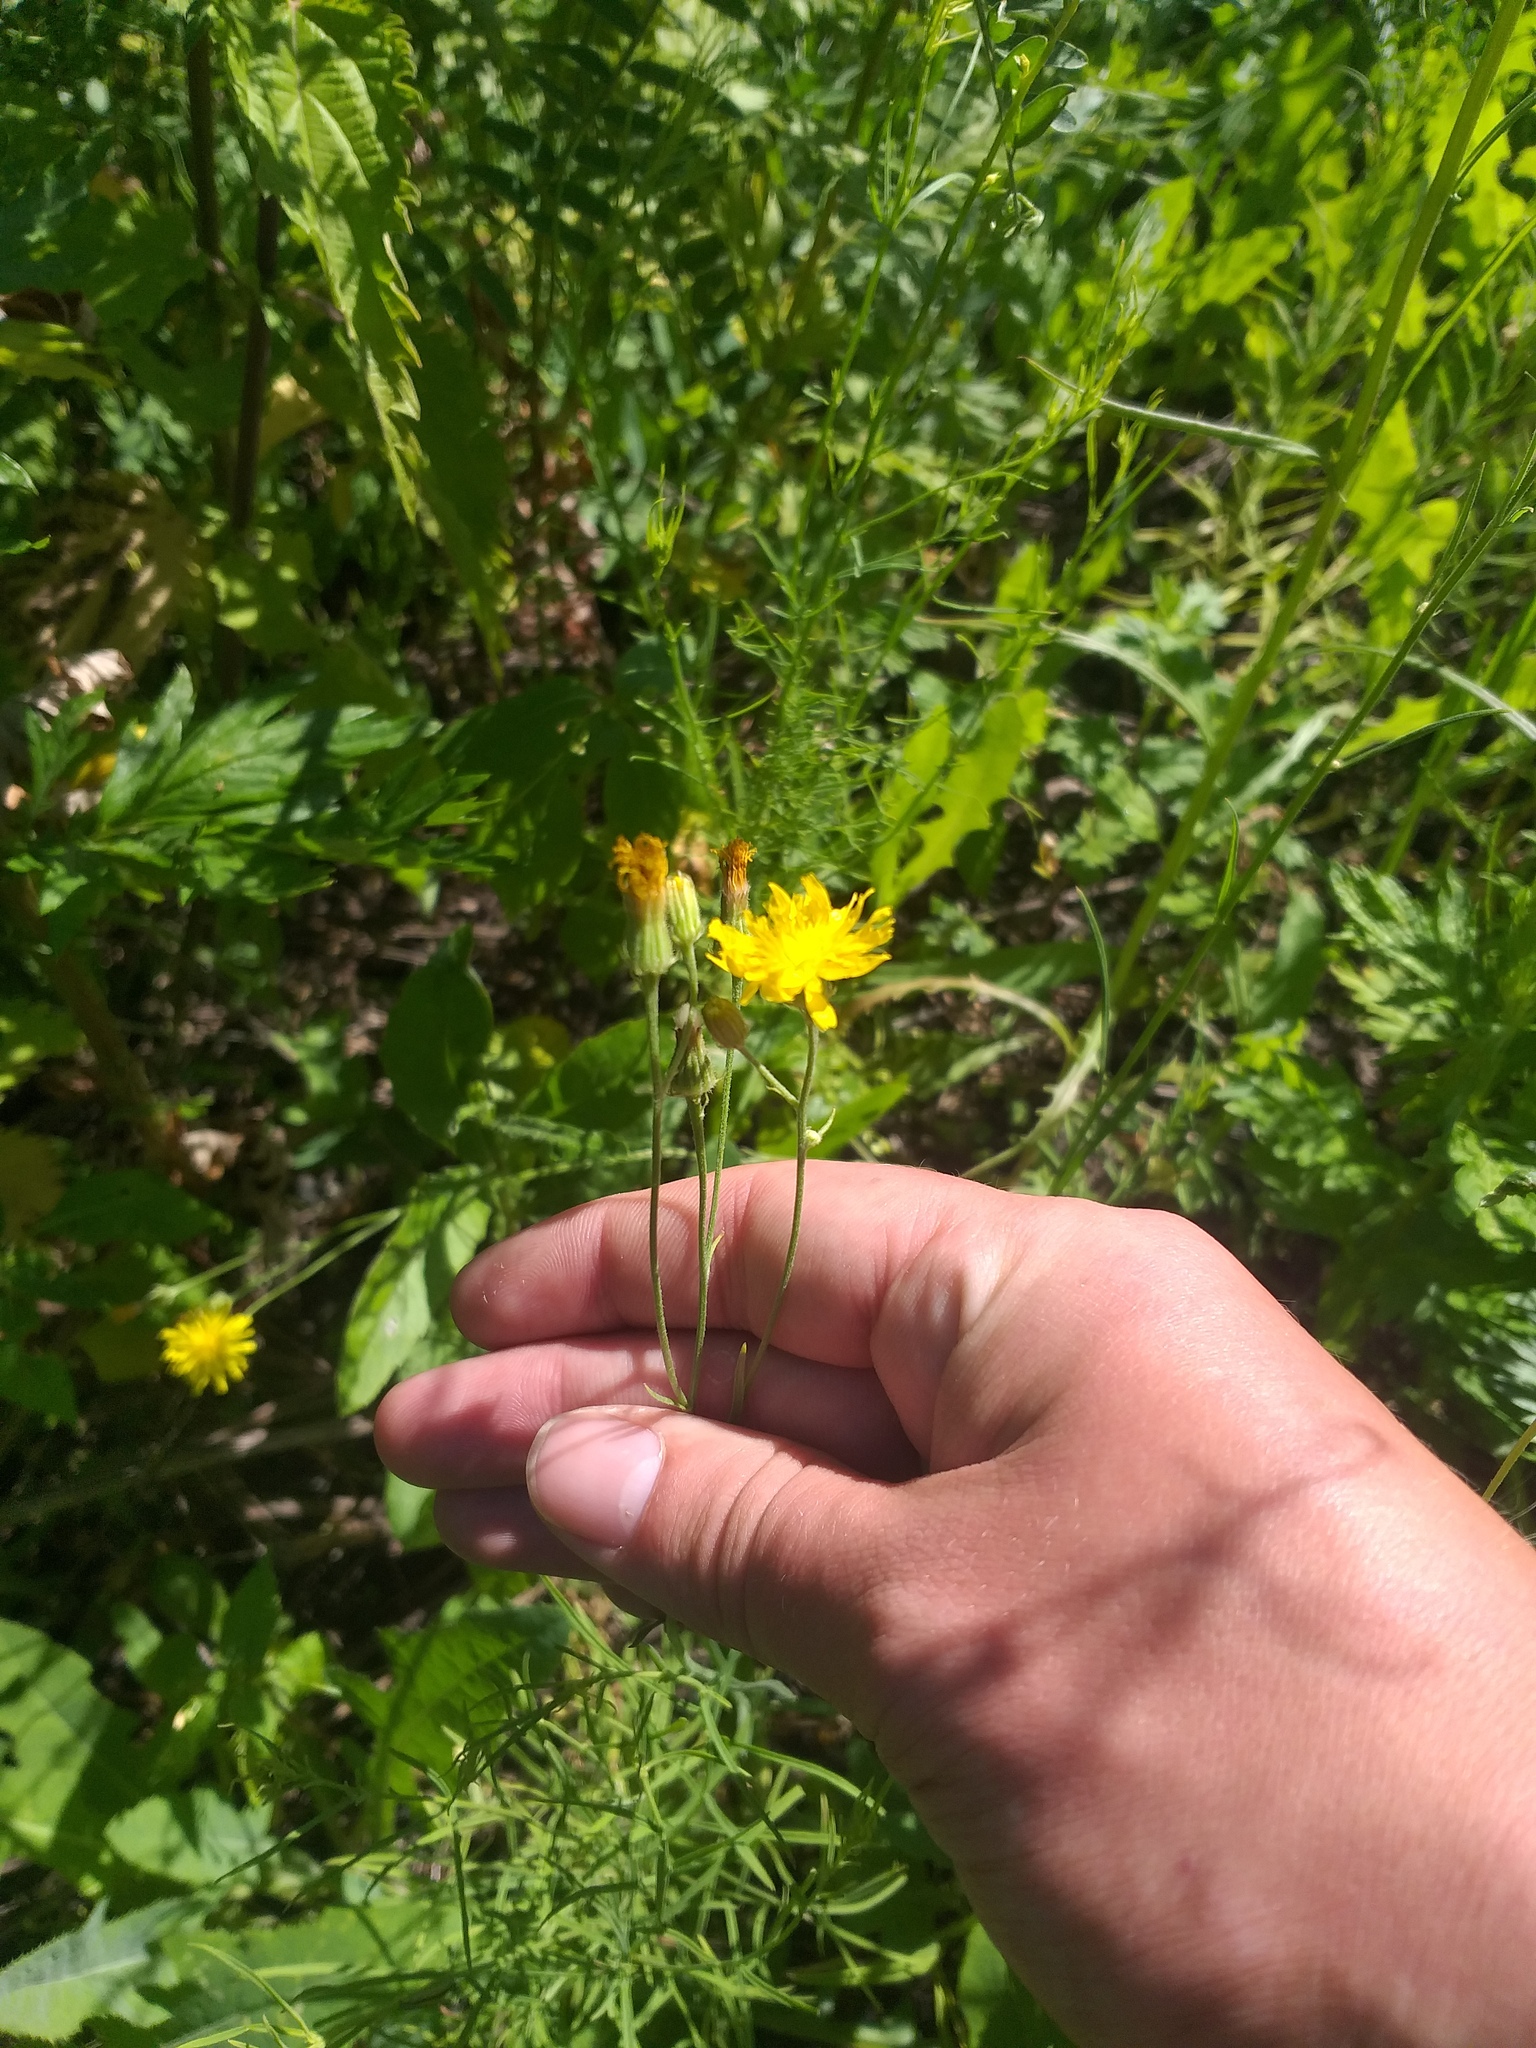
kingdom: Plantae
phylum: Tracheophyta
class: Magnoliopsida
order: Asterales
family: Asteraceae
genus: Crepis
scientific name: Crepis tectorum
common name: Narrow-leaved hawk's-beard
